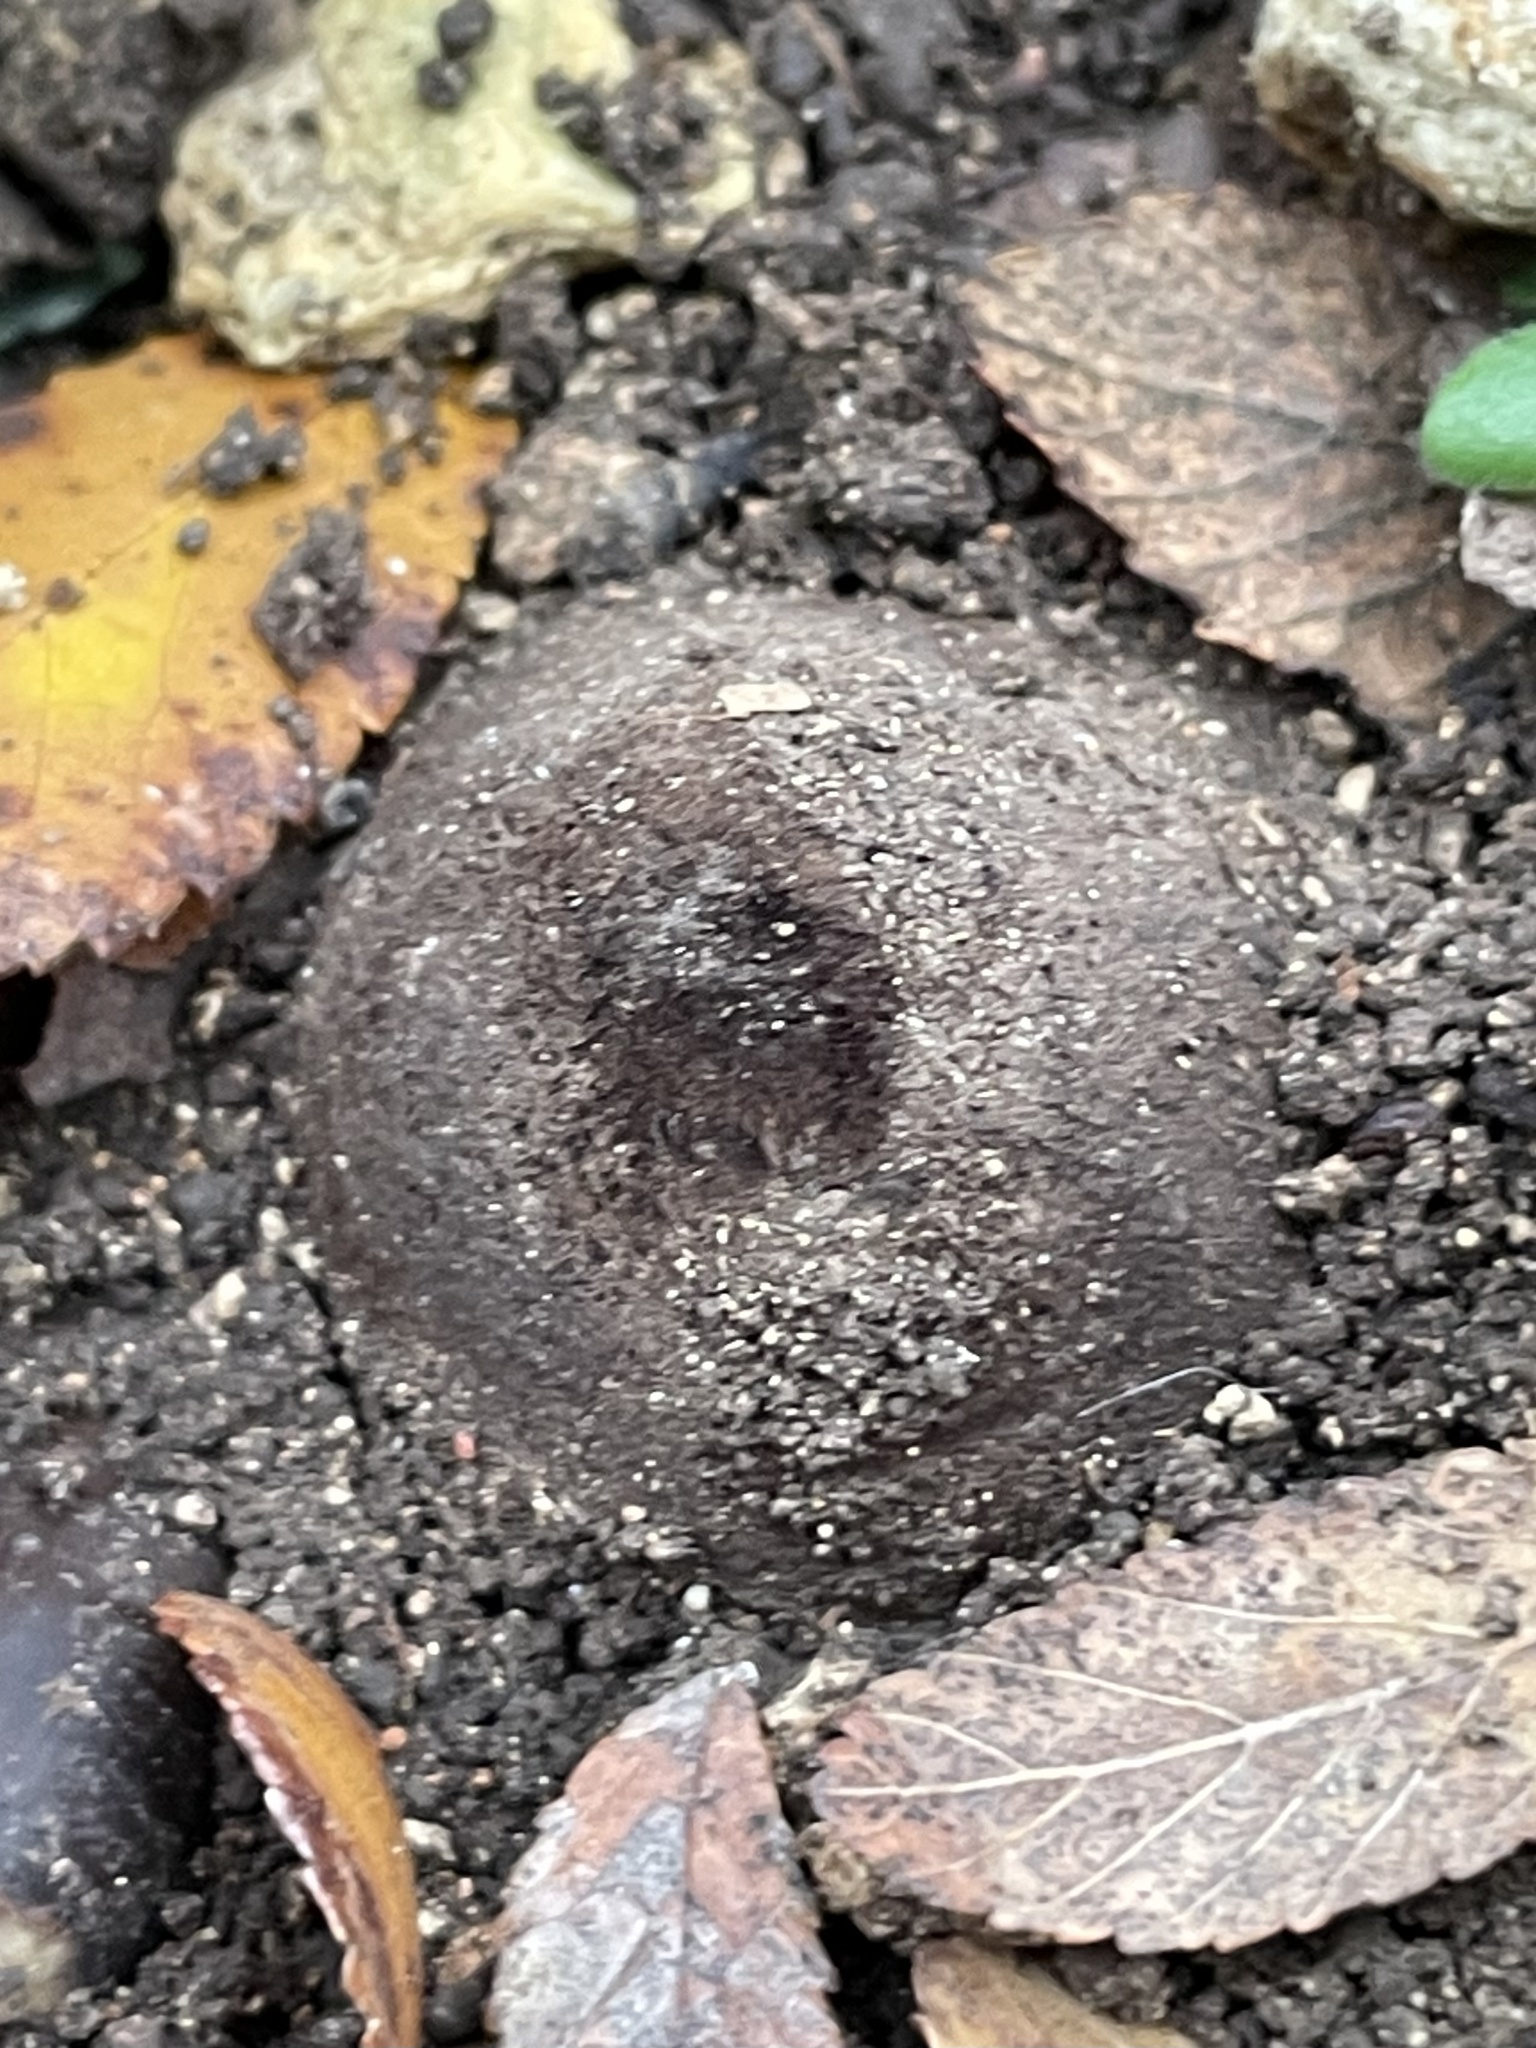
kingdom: Fungi
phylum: Ascomycota
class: Pezizomycetes
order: Pezizales
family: Chorioactidaceae
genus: Chorioactis
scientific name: Chorioactis geaster
